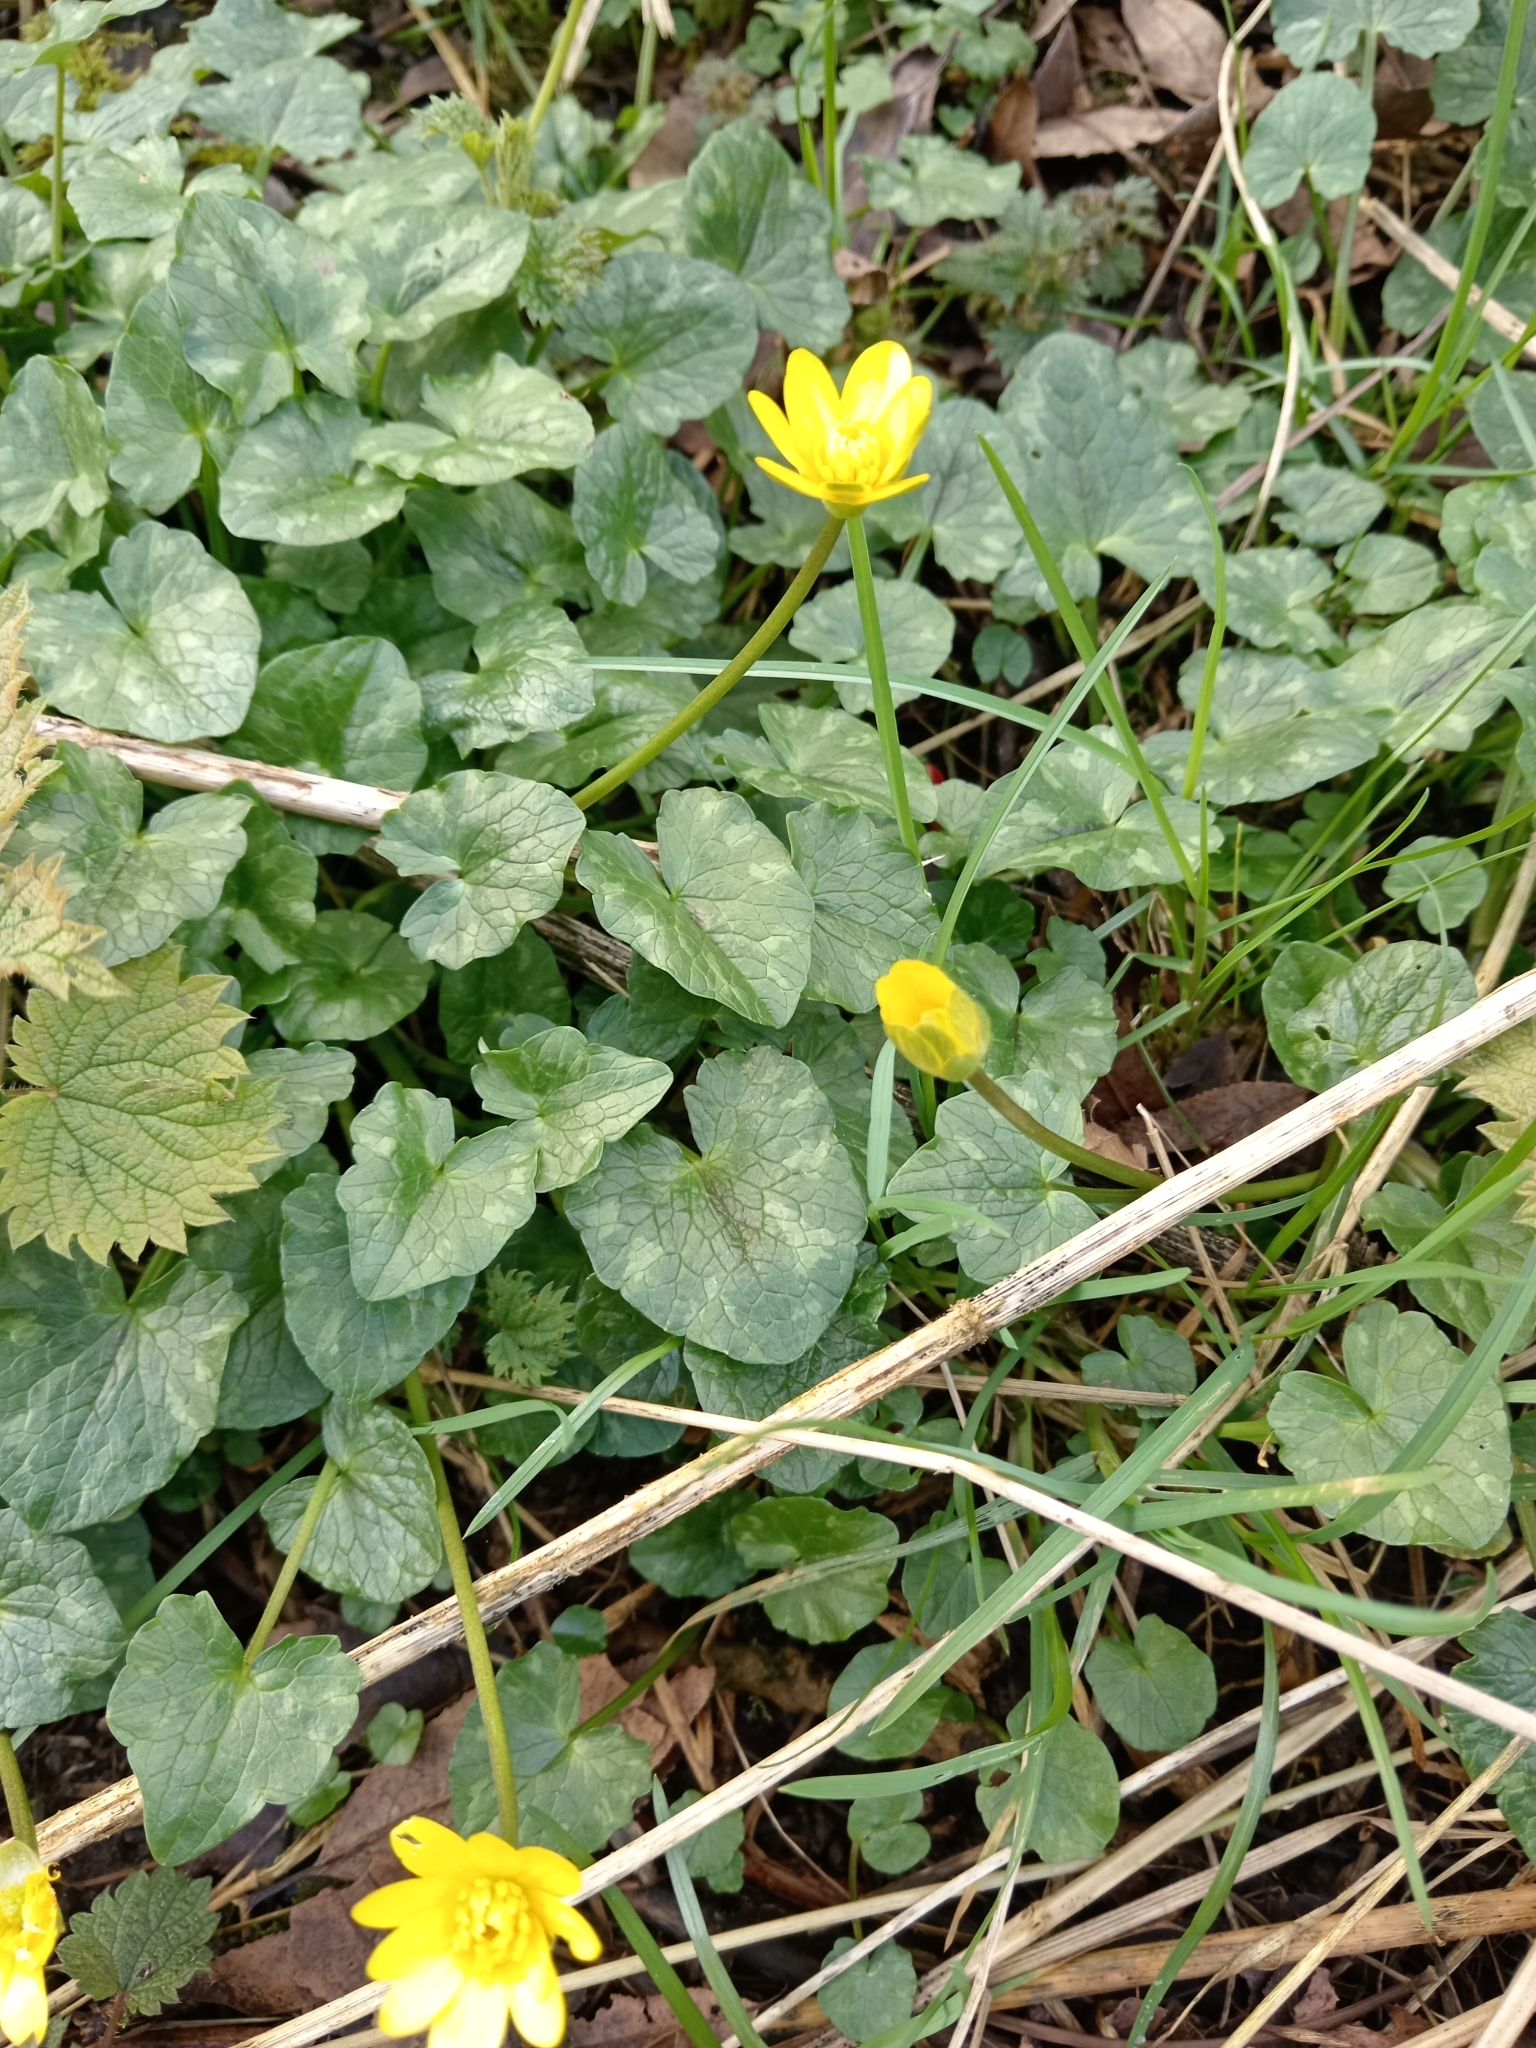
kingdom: Plantae
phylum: Tracheophyta
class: Magnoliopsida
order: Ranunculales
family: Ranunculaceae
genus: Ficaria
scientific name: Ficaria verna
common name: Lesser celandine
